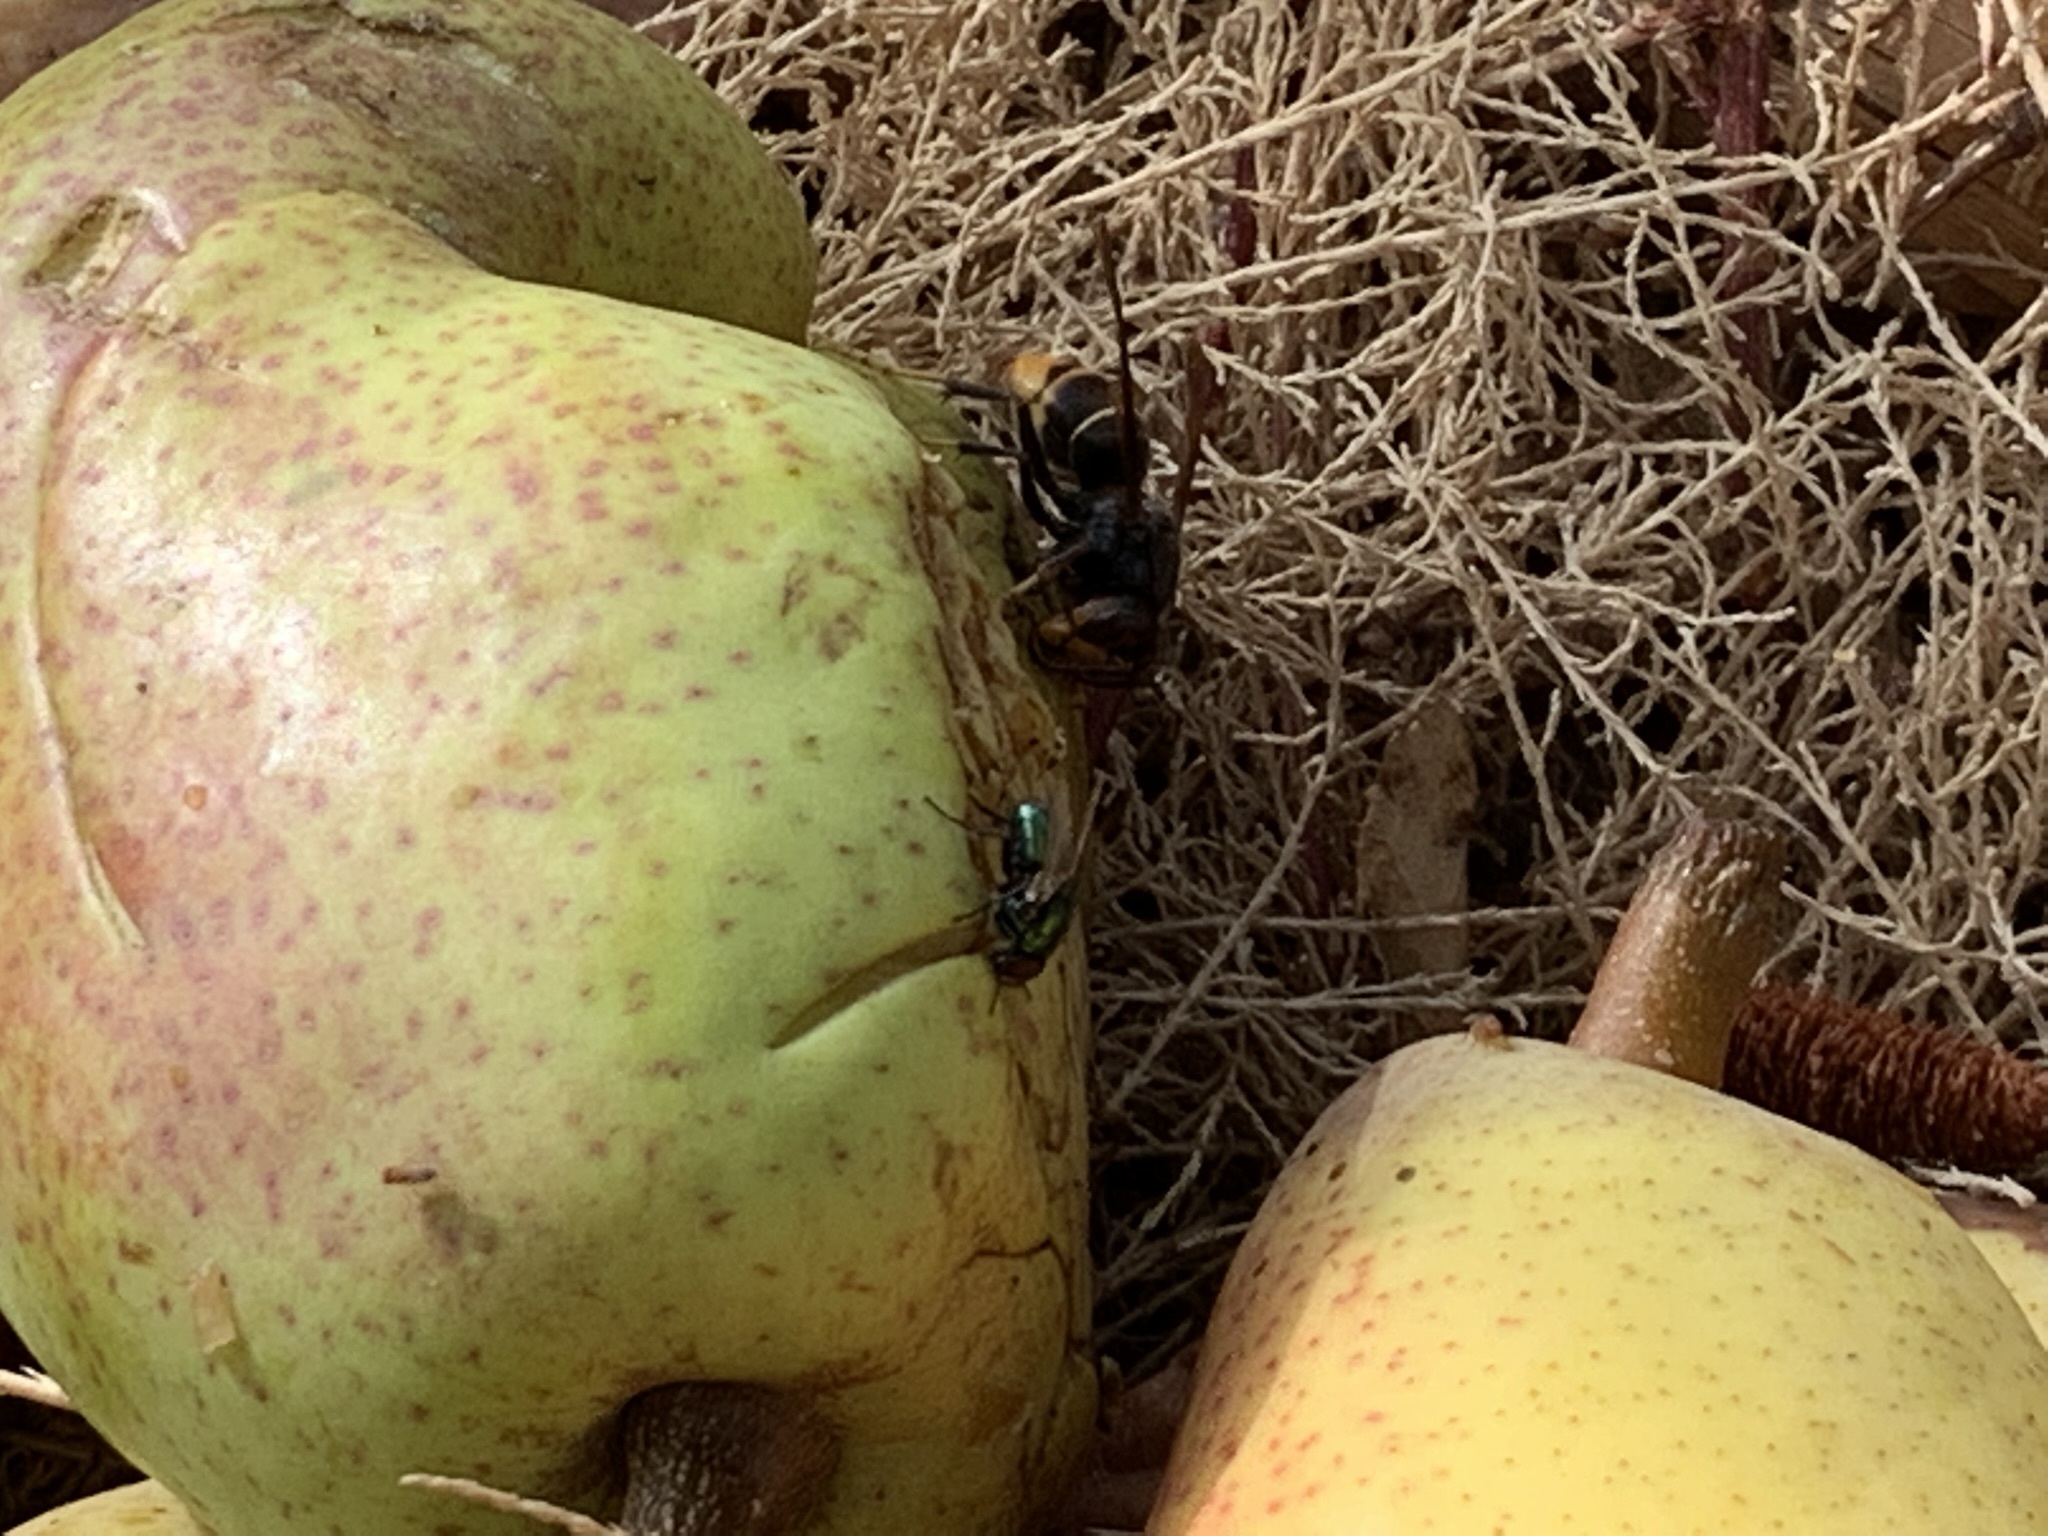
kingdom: Animalia
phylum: Arthropoda
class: Insecta
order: Hymenoptera
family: Vespidae
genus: Vespa
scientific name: Vespa velutina
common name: Asian hornet
